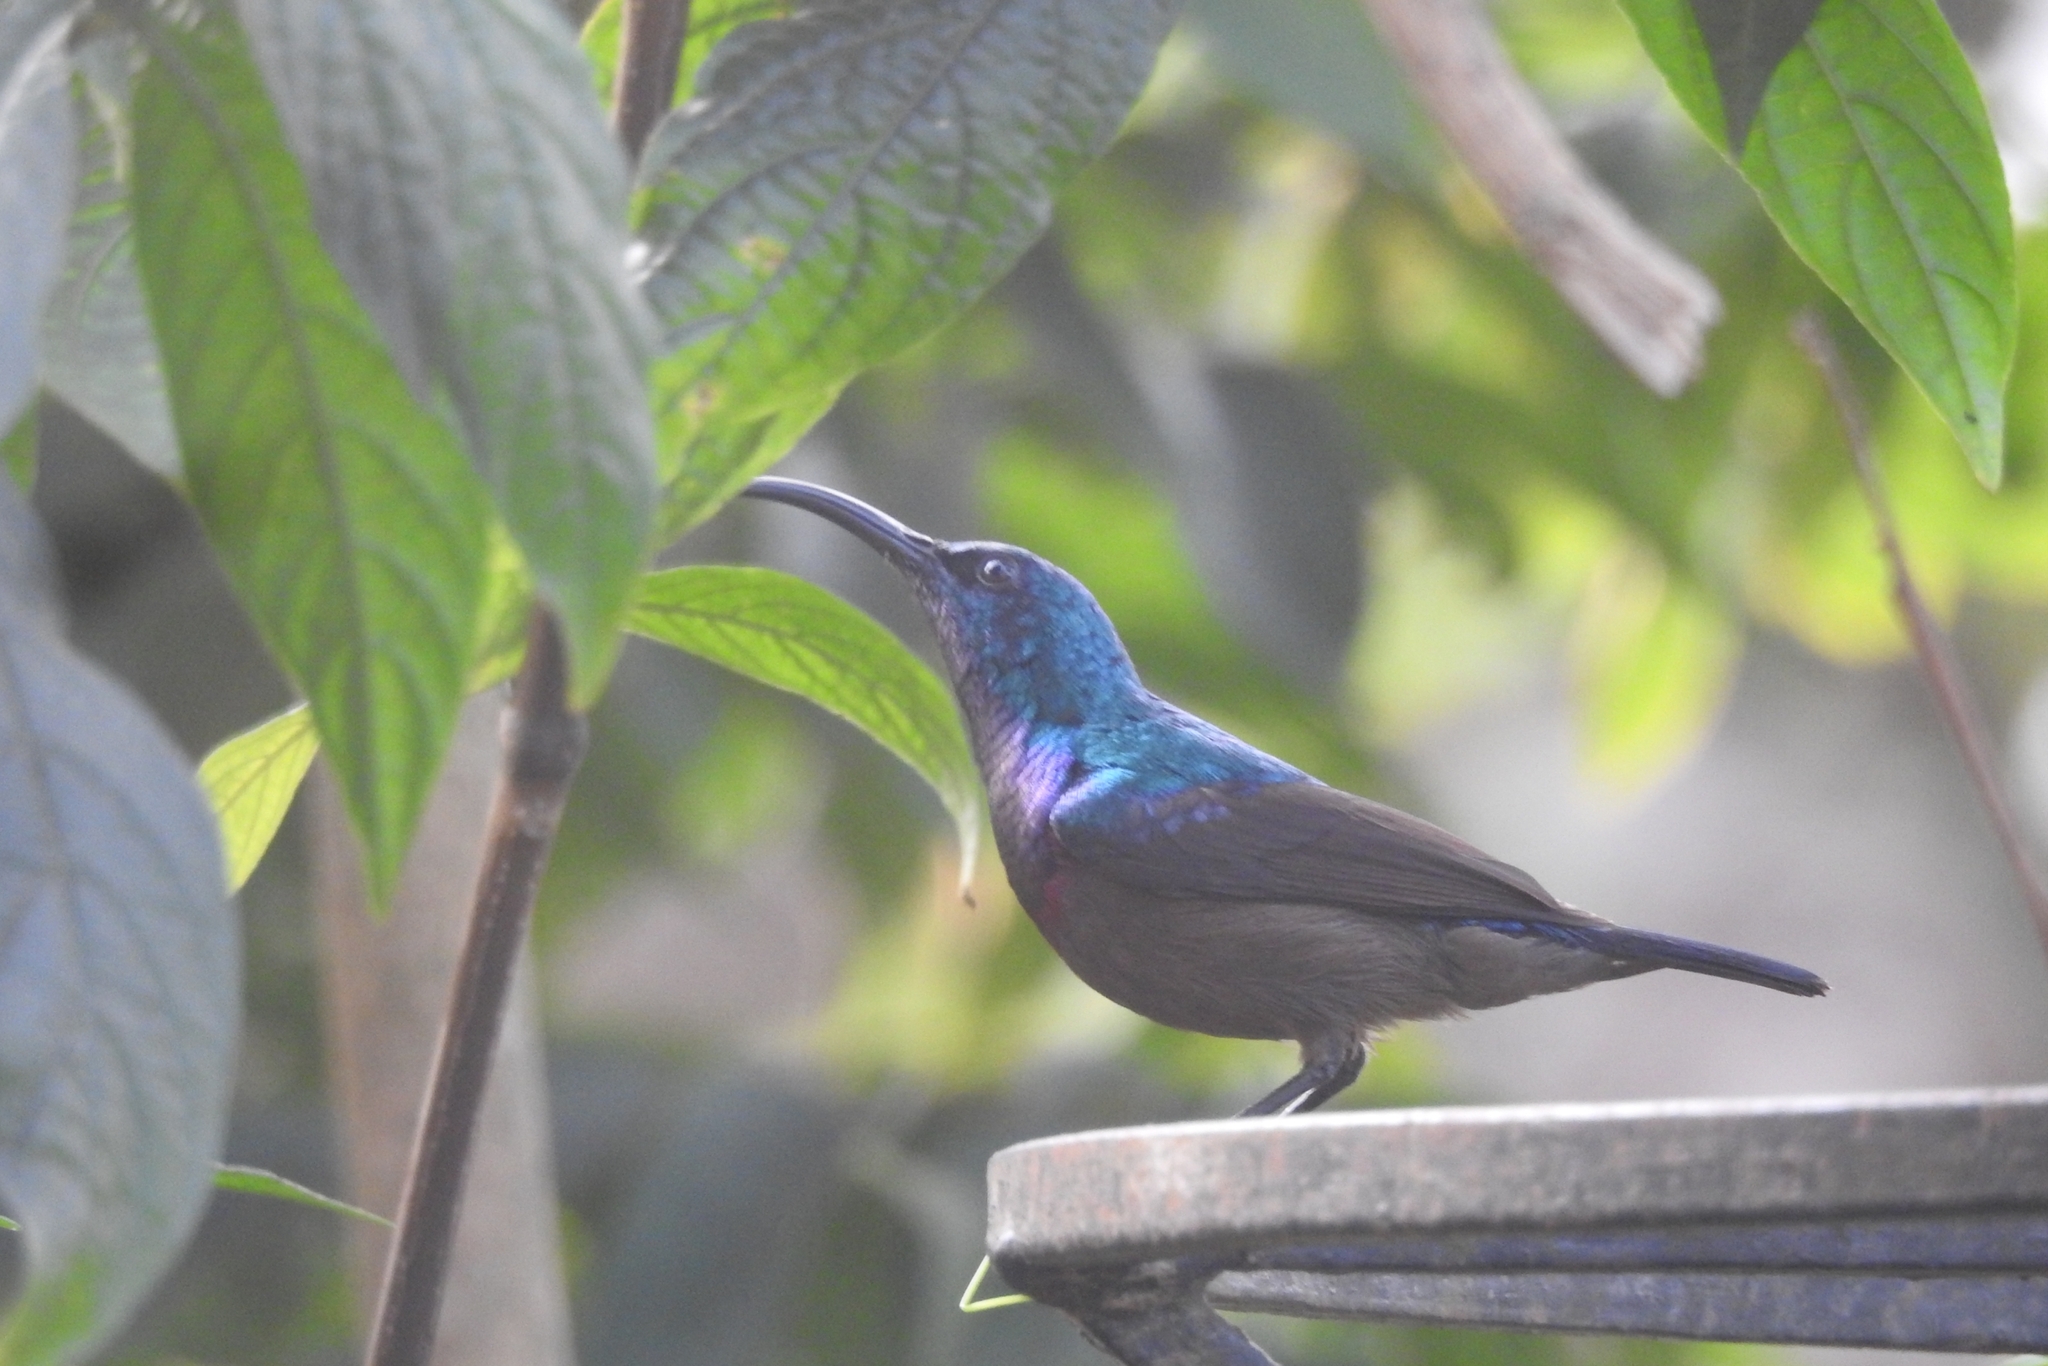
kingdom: Animalia
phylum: Chordata
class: Aves
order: Passeriformes
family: Nectariniidae
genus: Cinnyris
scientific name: Cinnyris lotenius
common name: Loten's sunbird
